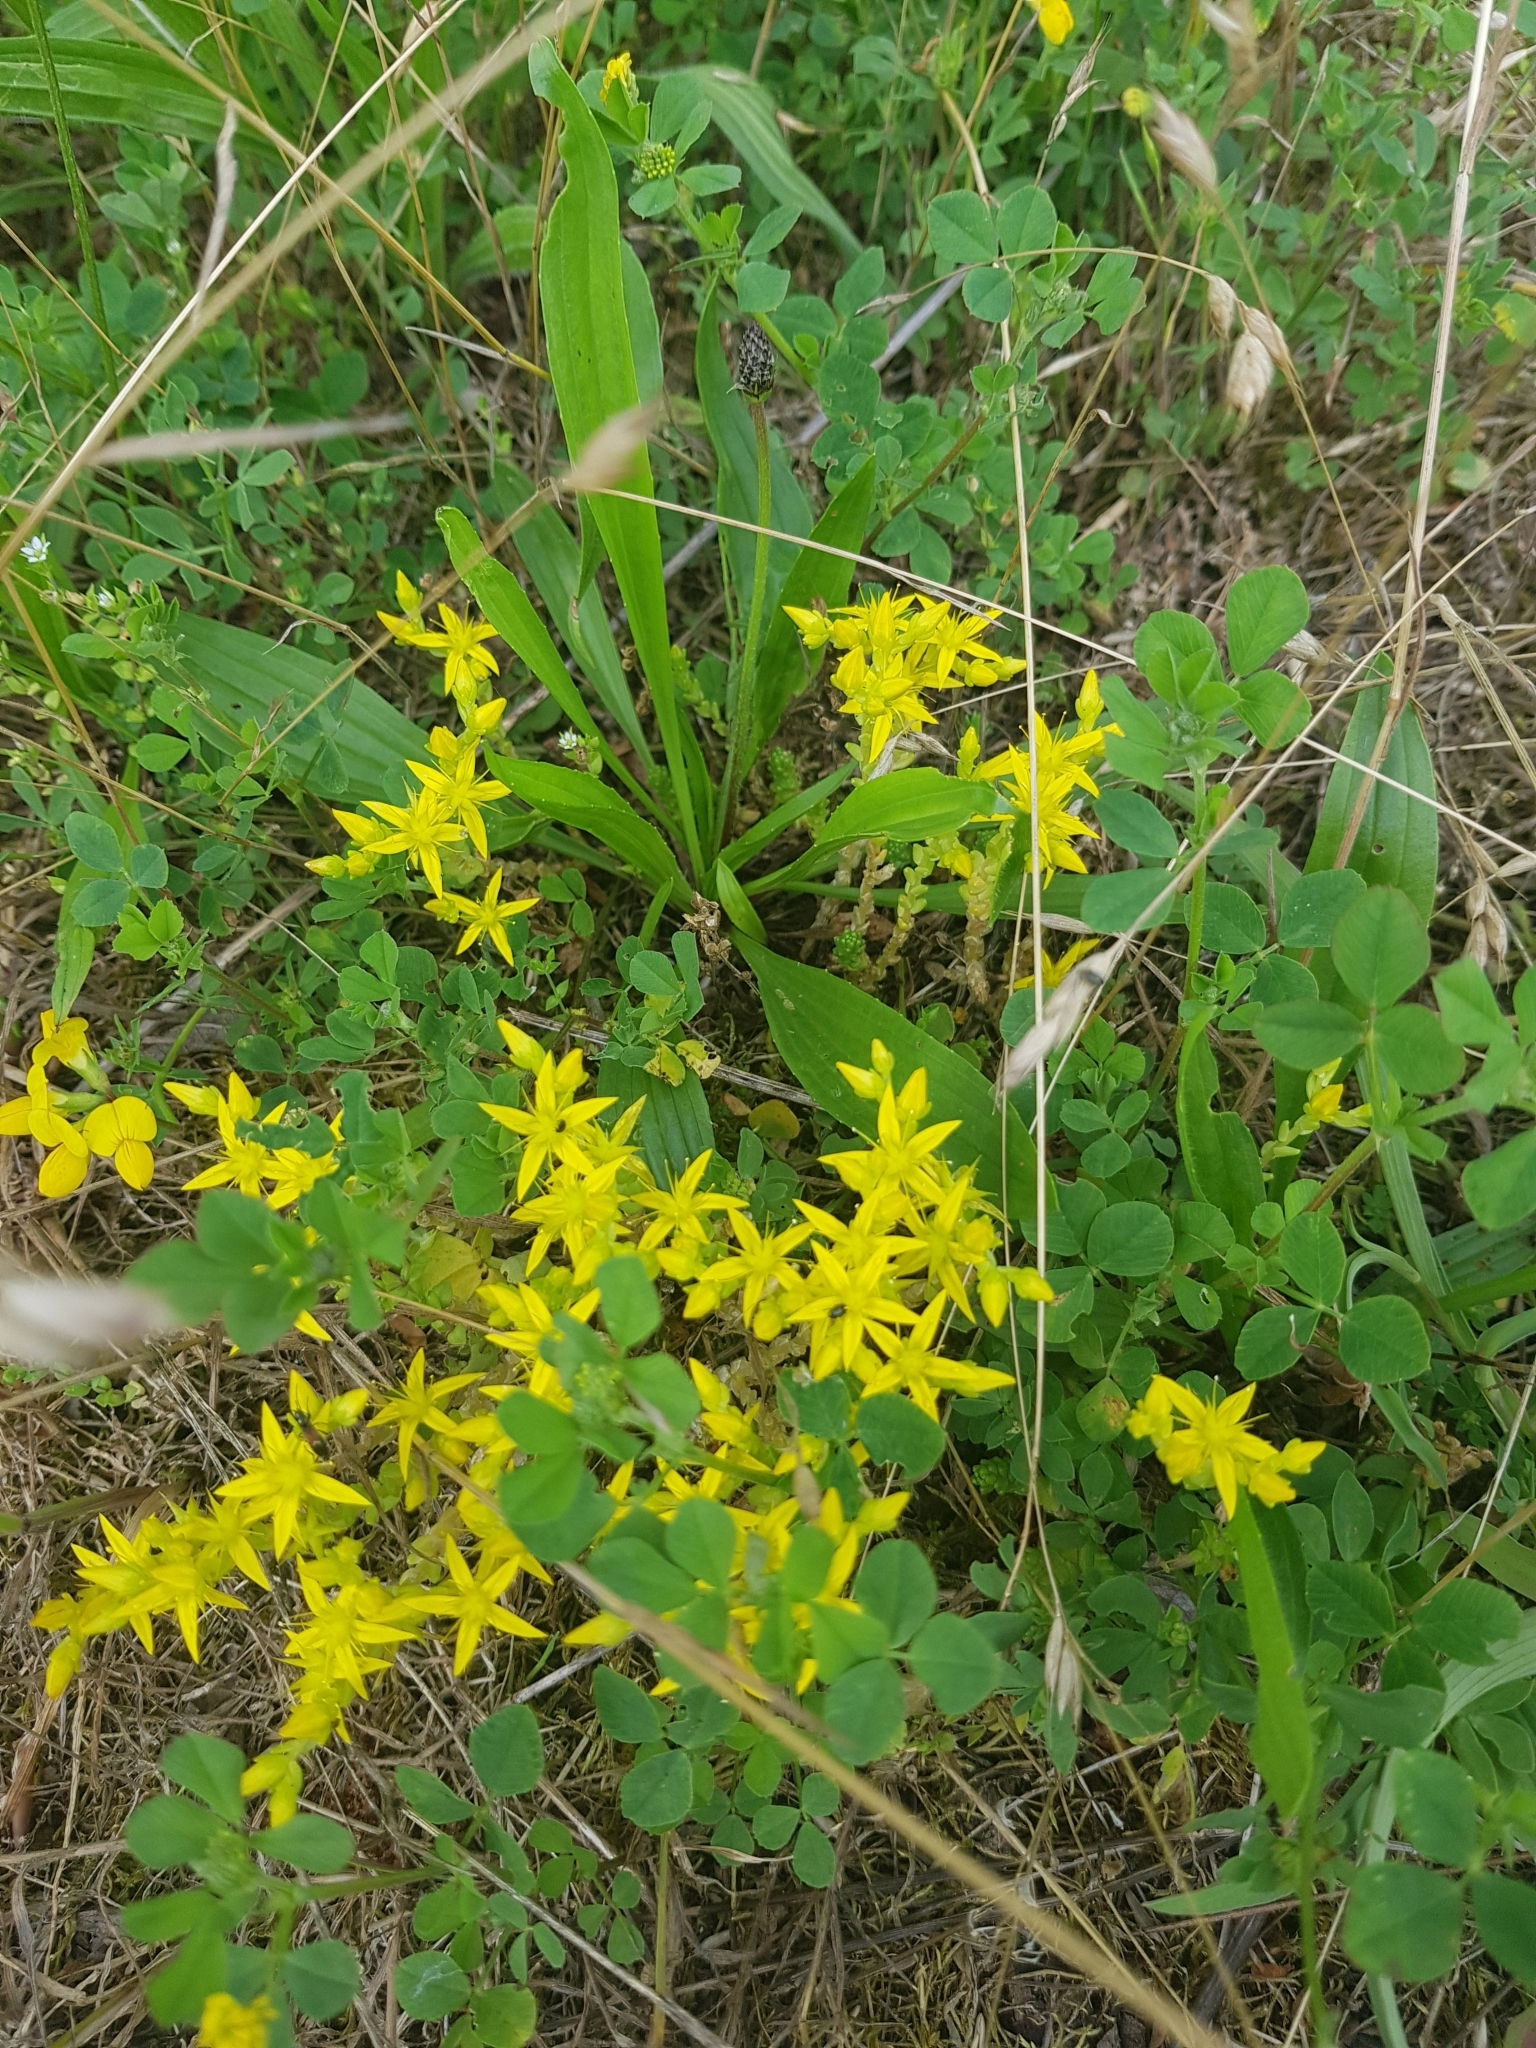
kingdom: Plantae
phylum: Tracheophyta
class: Magnoliopsida
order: Saxifragales
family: Crassulaceae
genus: Sedum
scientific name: Sedum acre
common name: Biting stonecrop
